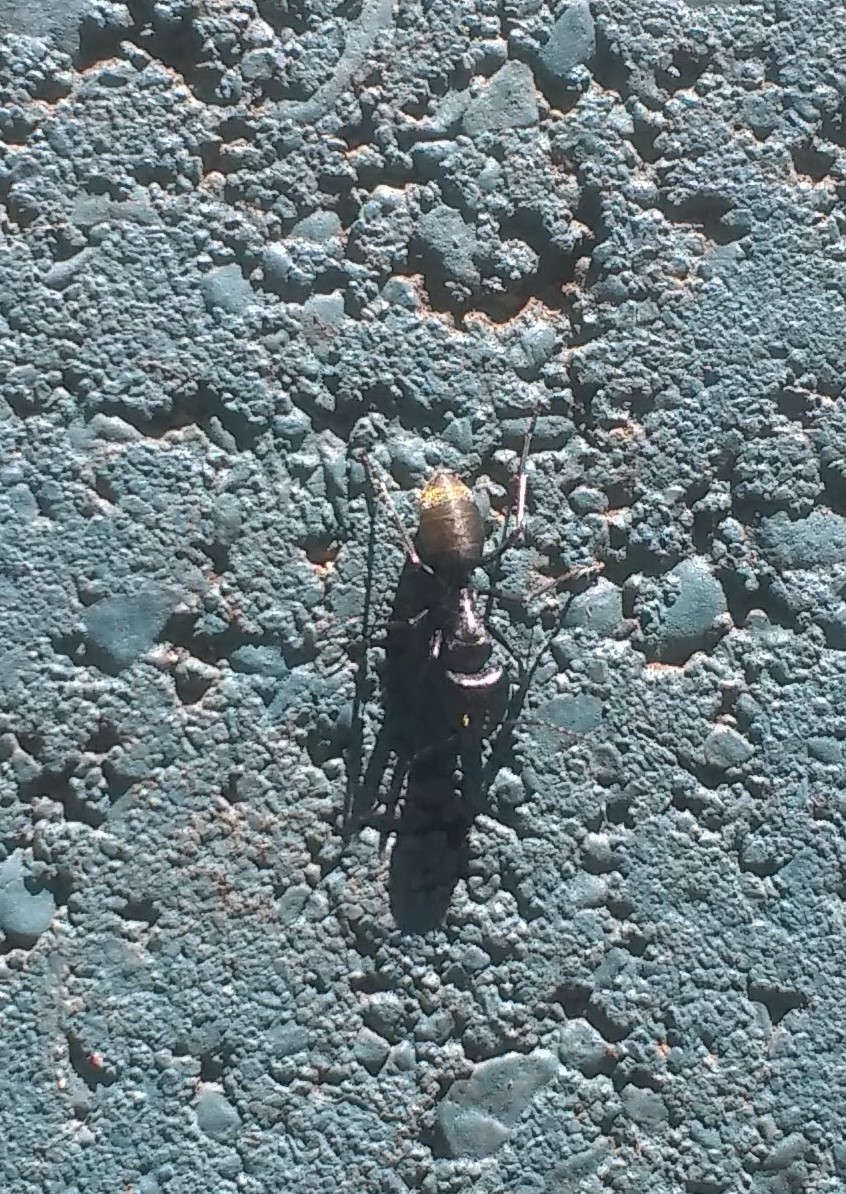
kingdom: Animalia
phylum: Arthropoda
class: Insecta
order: Hymenoptera
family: Formicidae
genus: Camponotus
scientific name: Camponotus aeneopilosus
